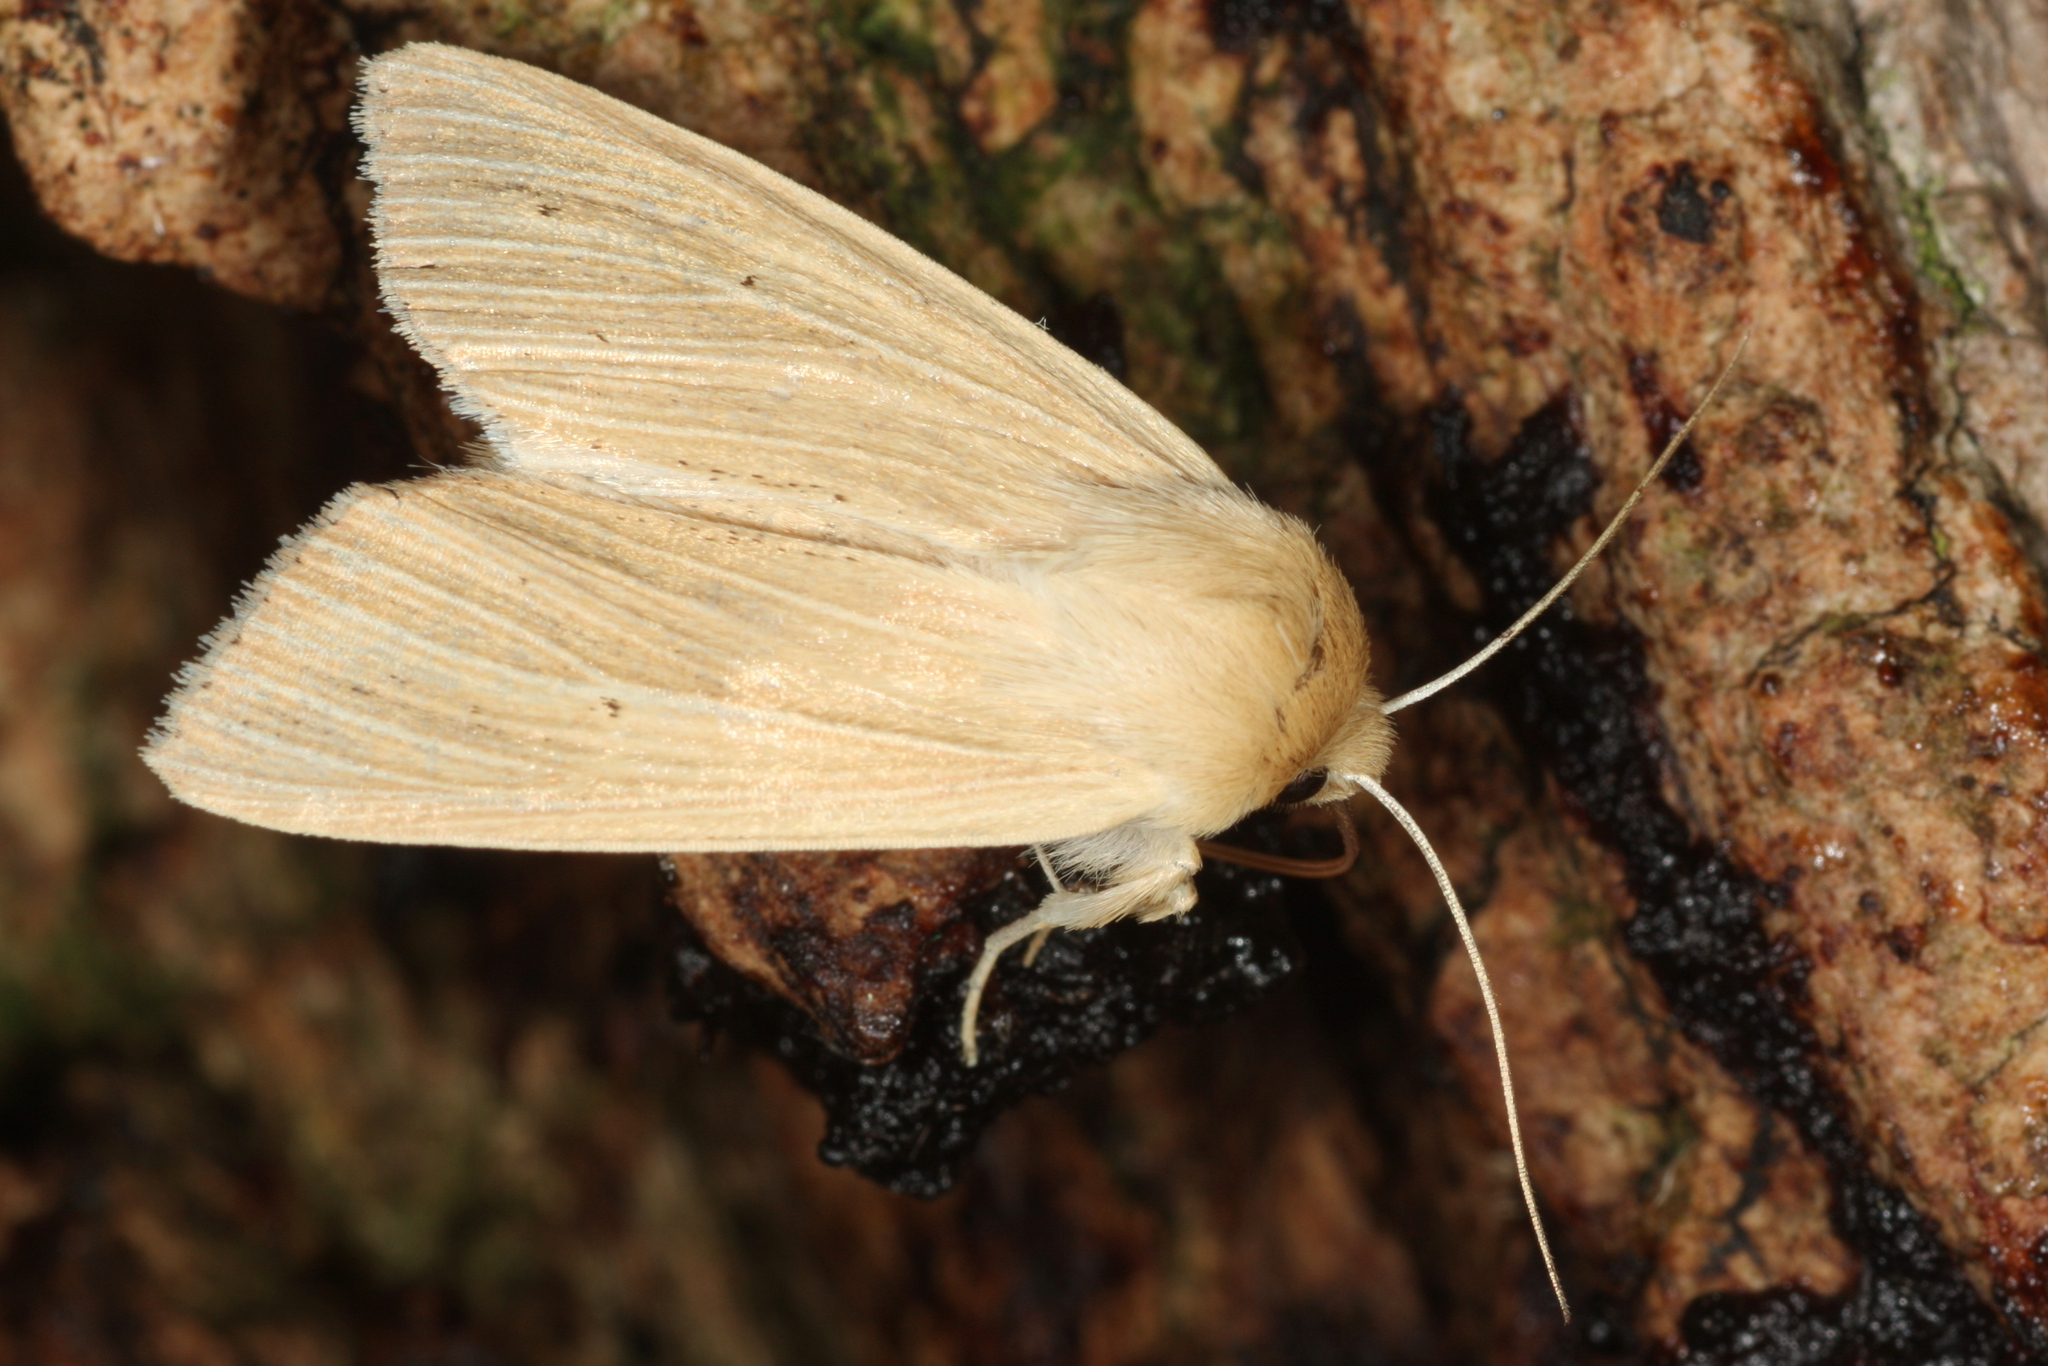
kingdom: Animalia
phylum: Arthropoda
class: Insecta
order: Lepidoptera
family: Noctuidae
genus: Mythimna
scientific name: Mythimna pallens
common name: Common wainscot
